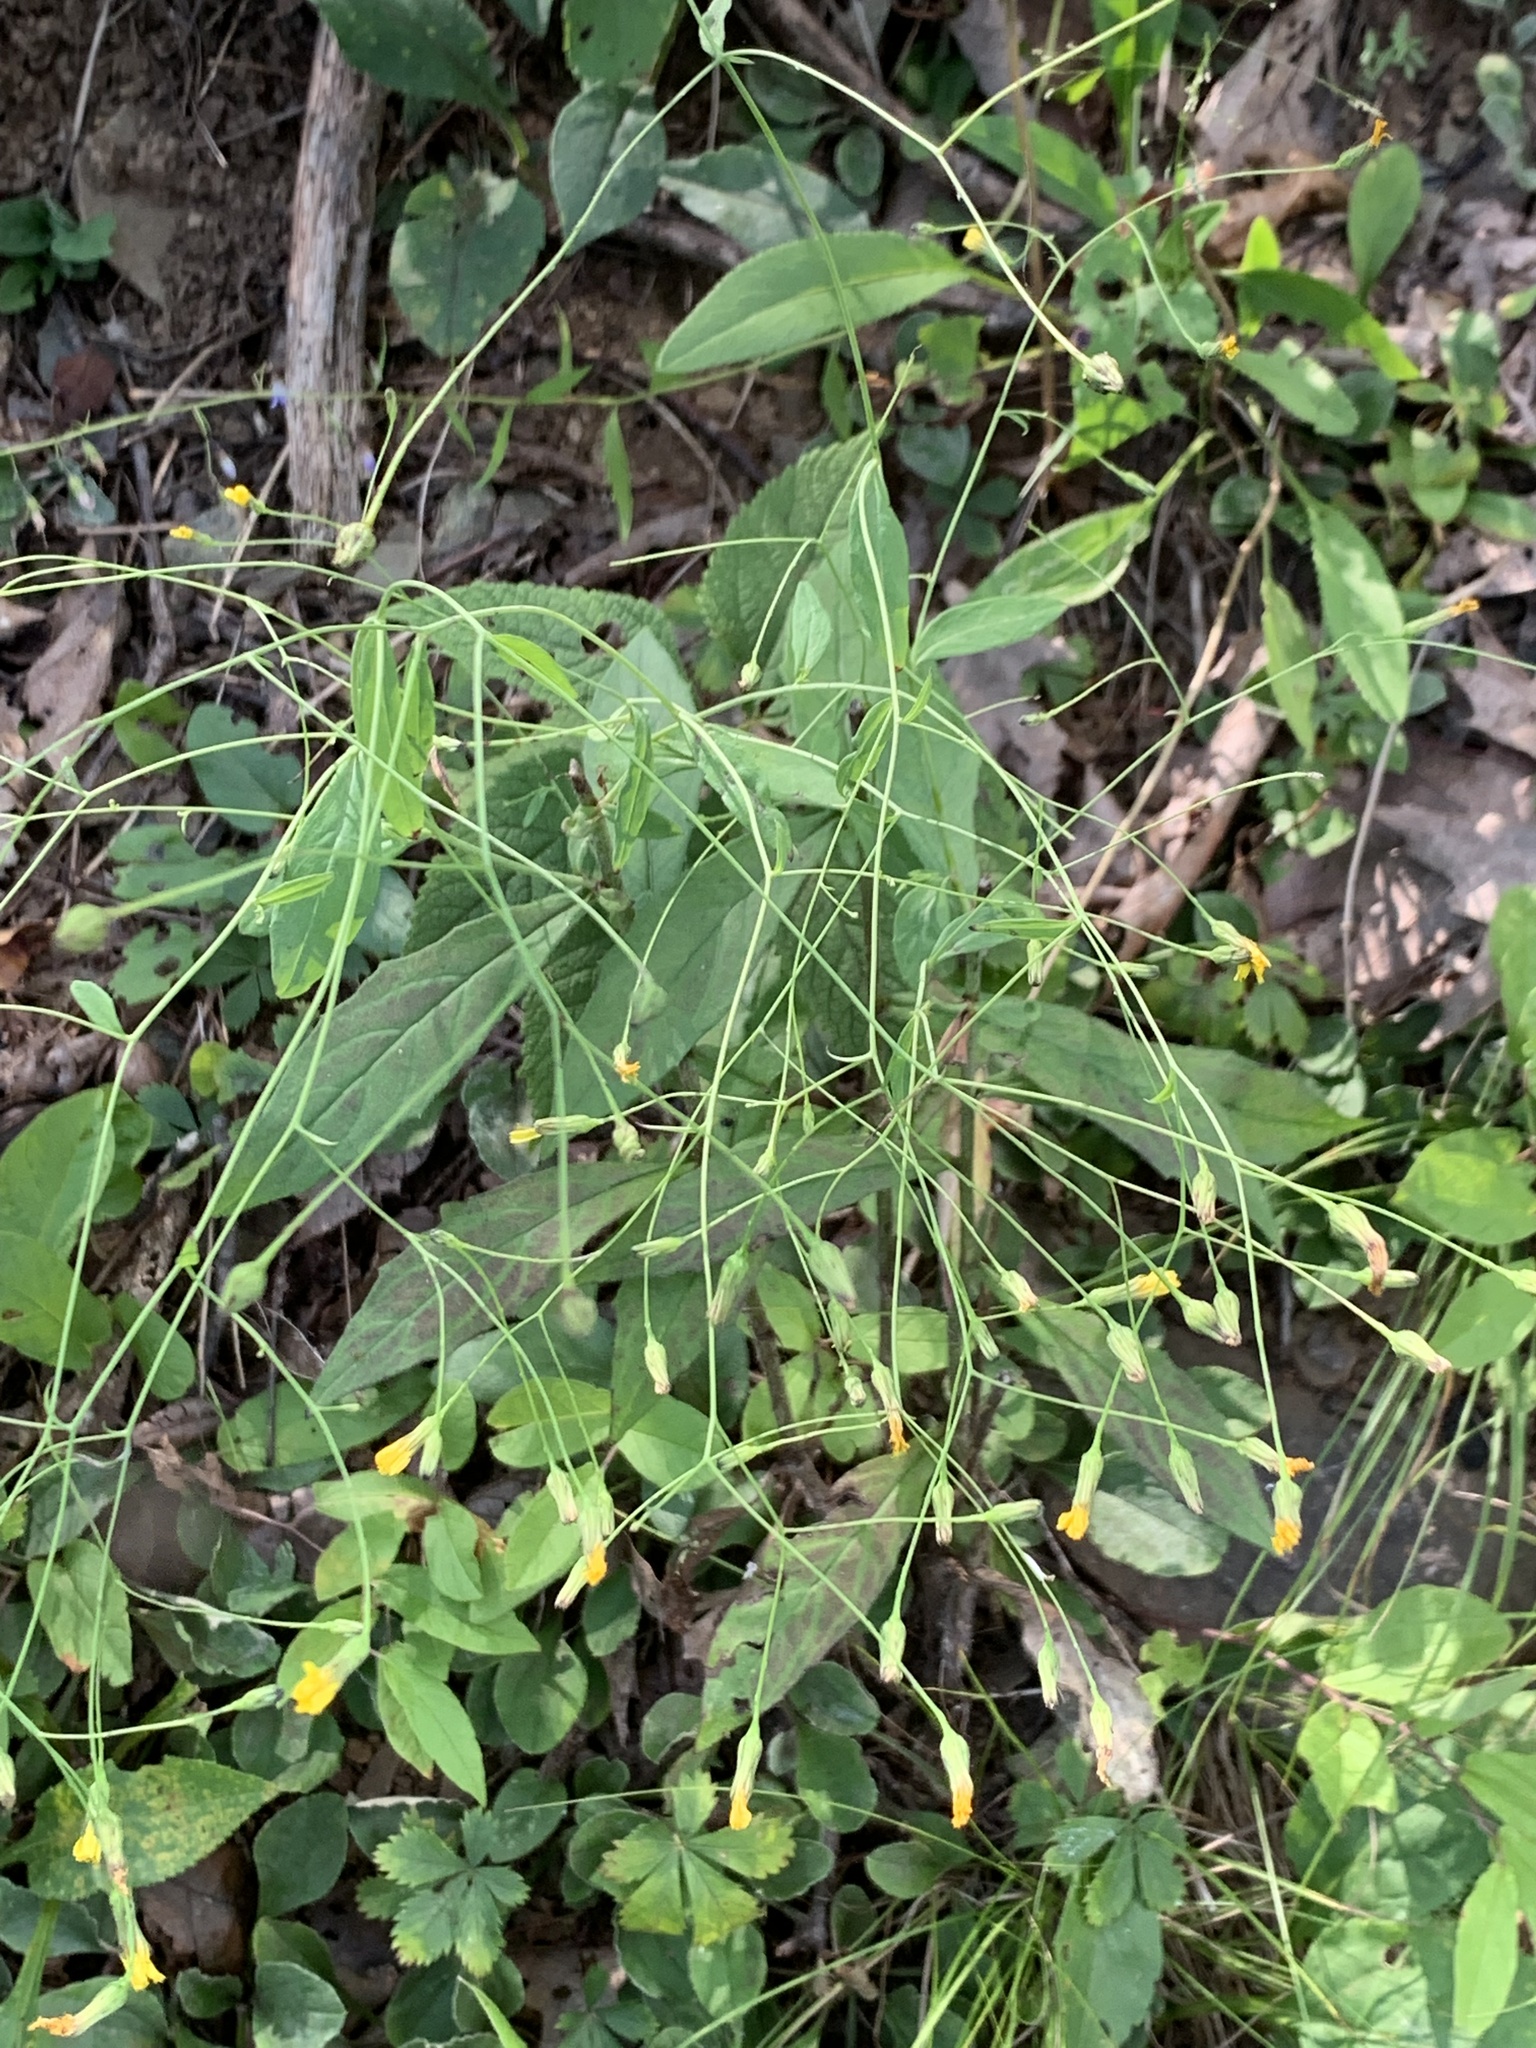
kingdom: Plantae
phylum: Tracheophyta
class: Magnoliopsida
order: Asterales
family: Asteraceae
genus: Hieracium
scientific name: Hieracium paniculatum
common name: Allegheny hawkweed
